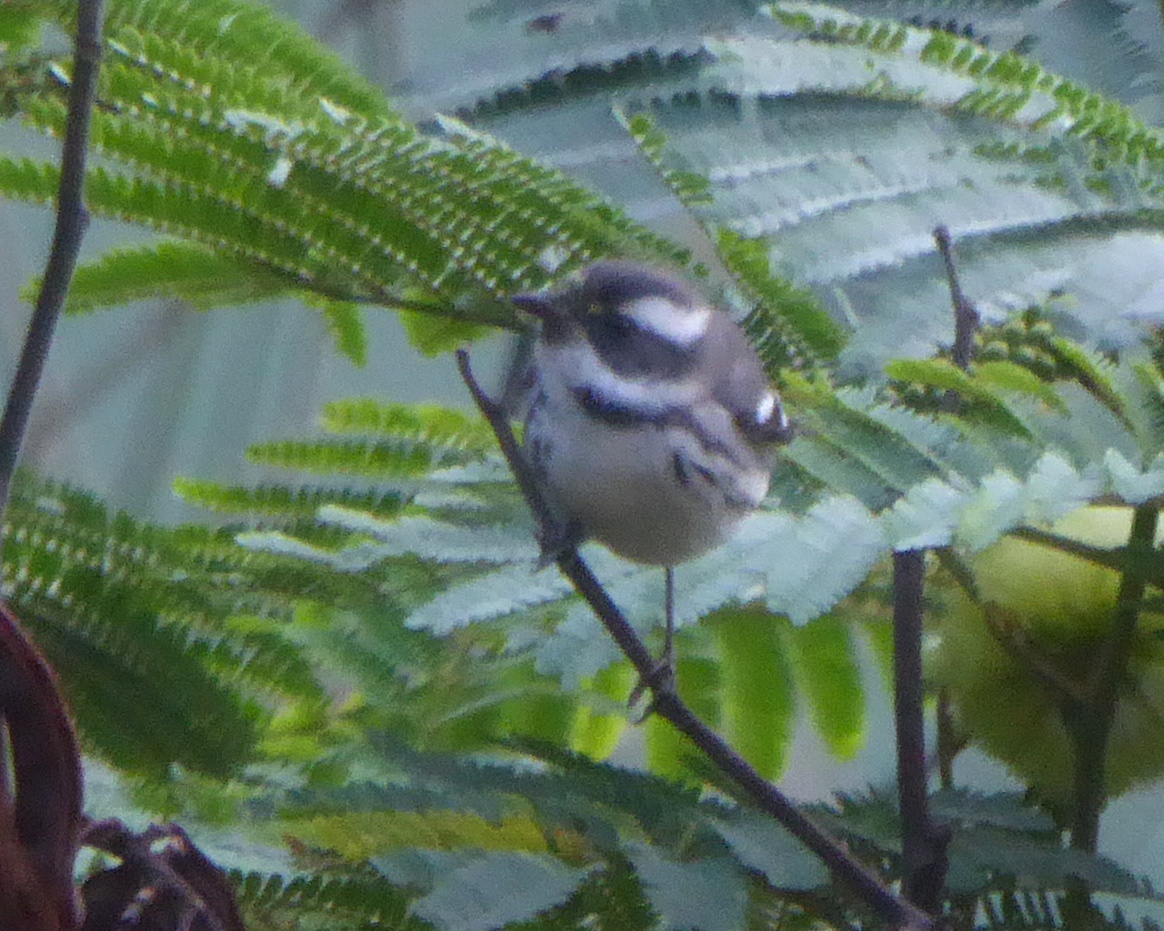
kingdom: Animalia
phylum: Chordata
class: Aves
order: Passeriformes
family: Parulidae
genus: Setophaga
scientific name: Setophaga nigrescens
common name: Black-throated gray warbler
